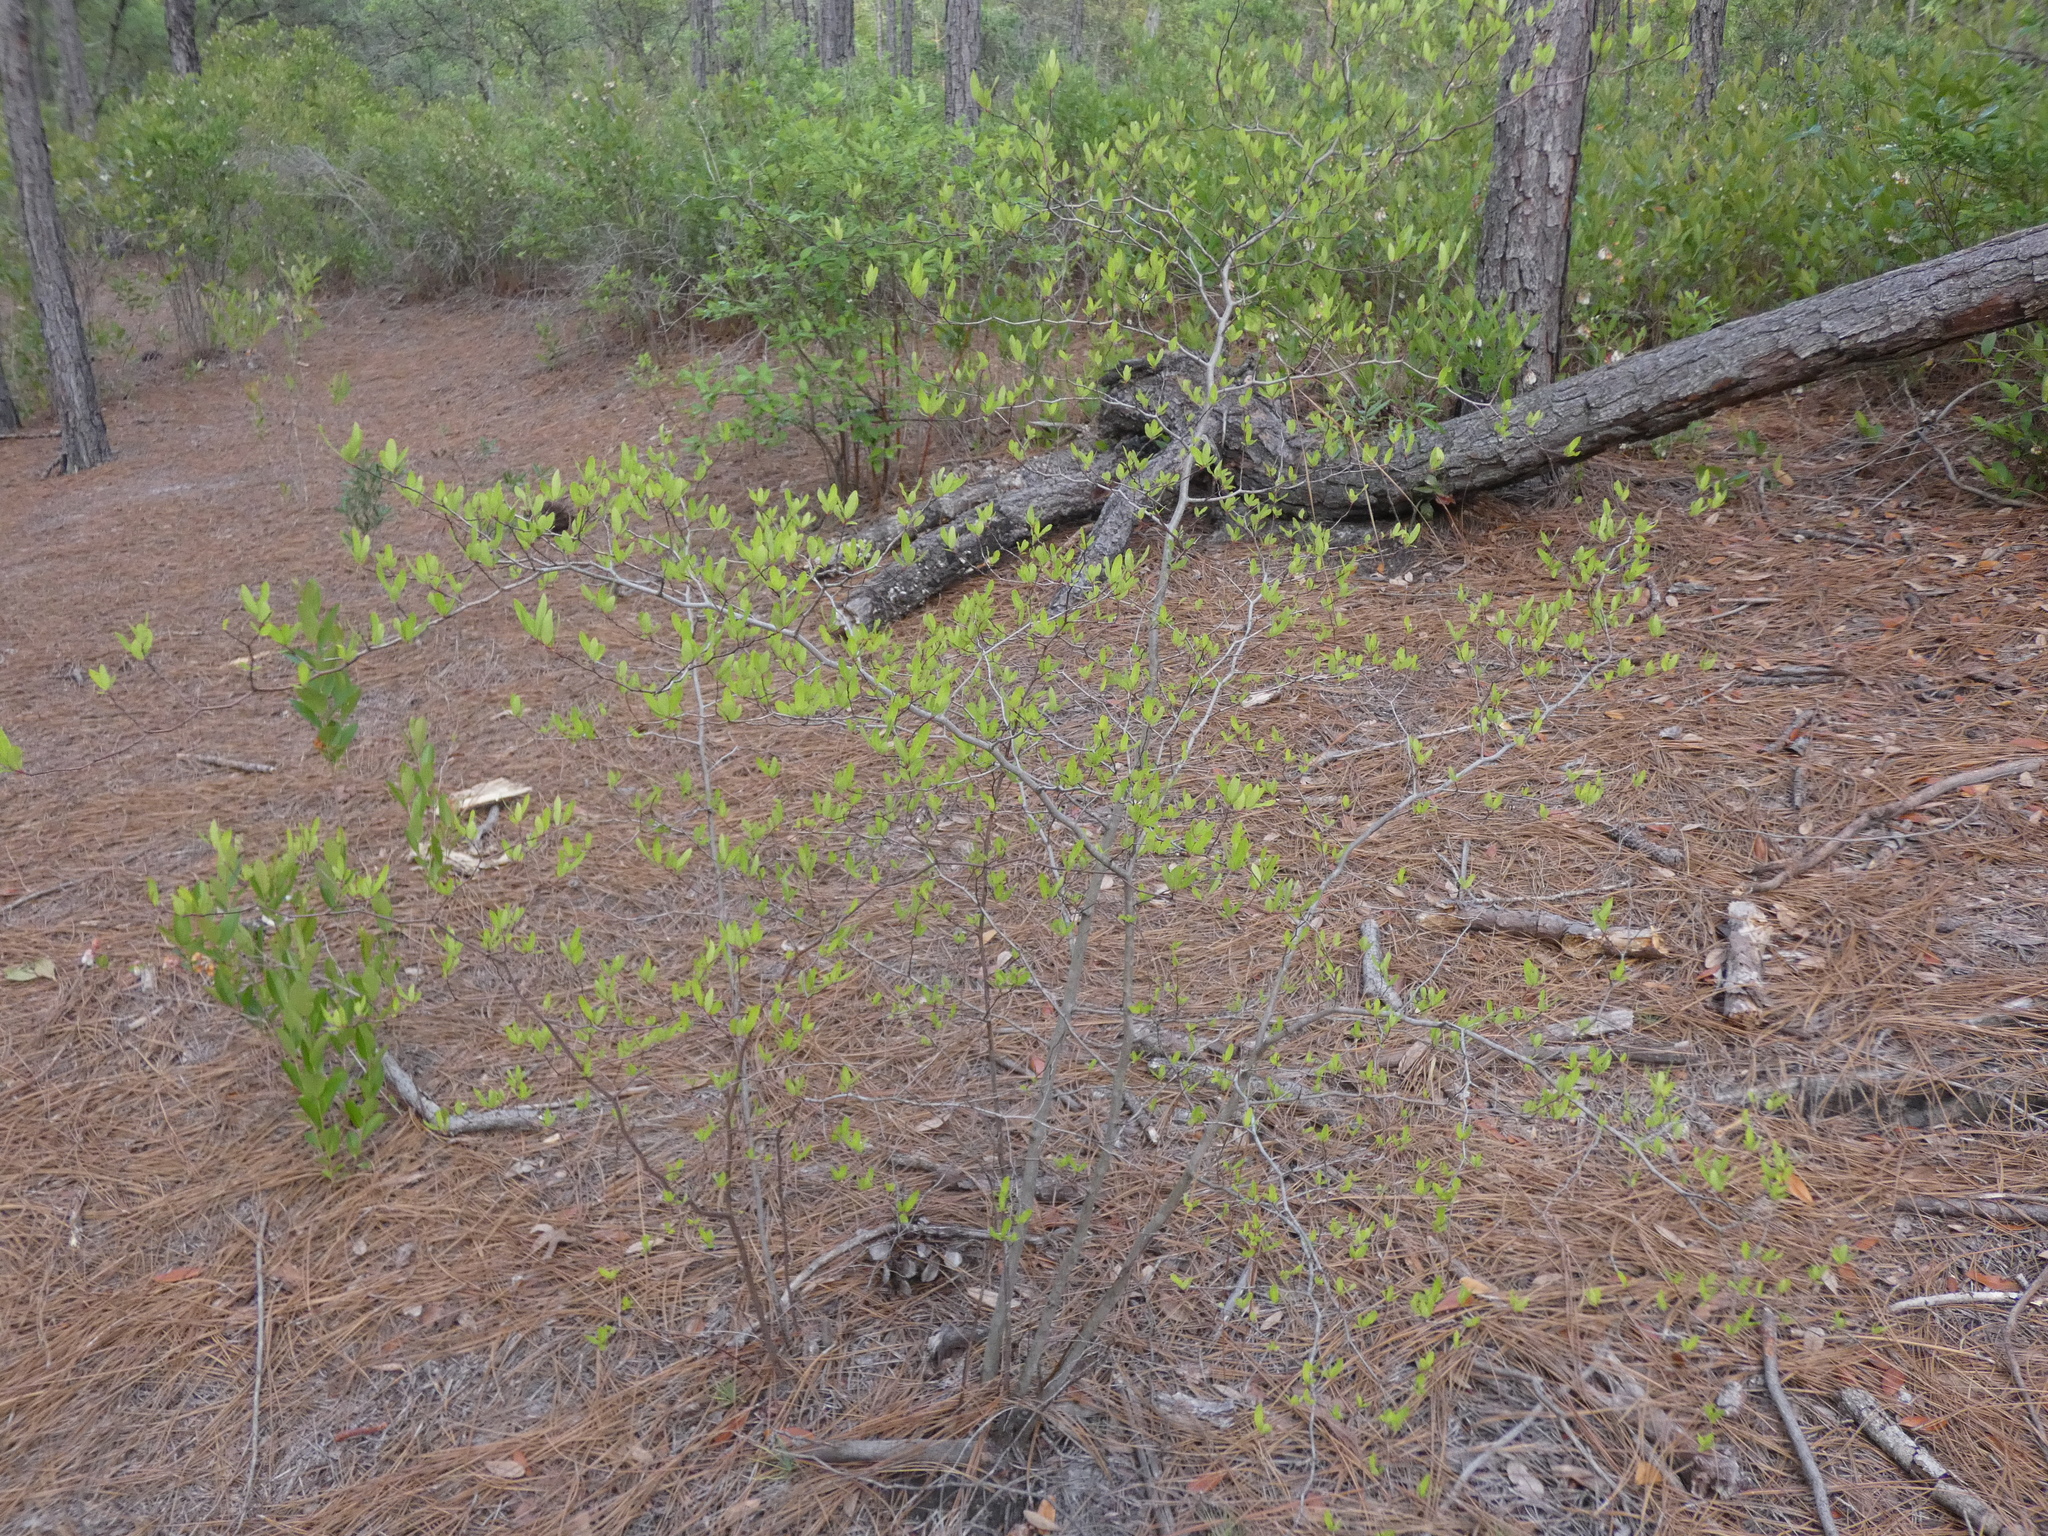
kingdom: Plantae
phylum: Tracheophyta
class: Magnoliopsida
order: Laurales
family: Lauraceae
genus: Litsea
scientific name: Litsea aestivalis
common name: Pondspice
